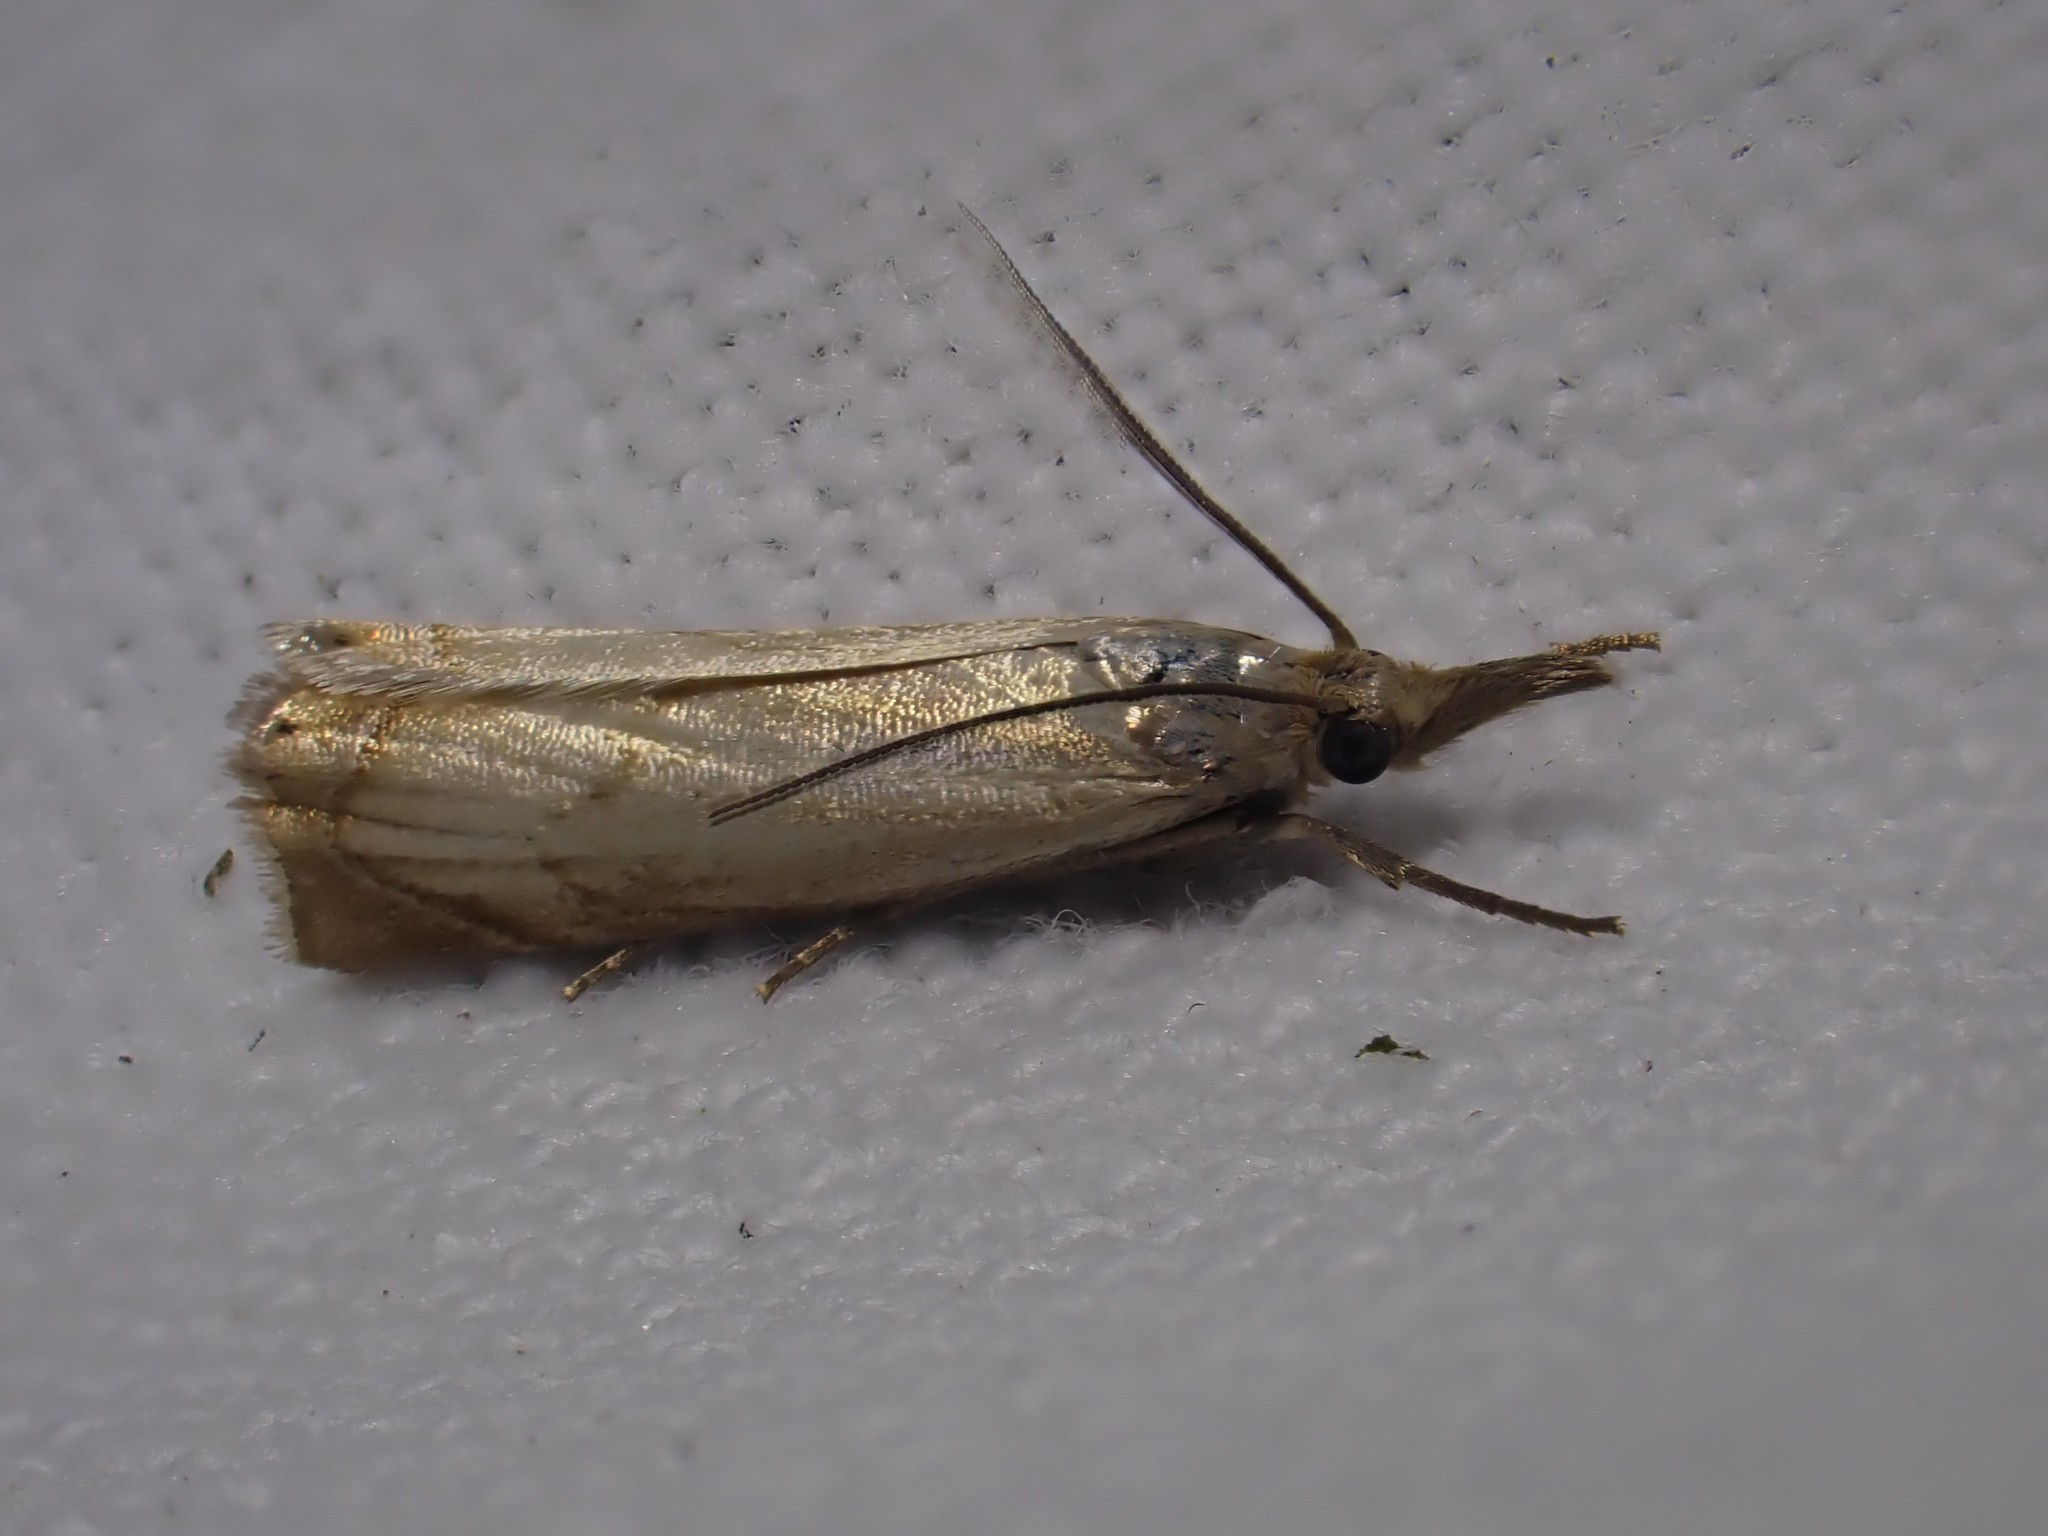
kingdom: Animalia
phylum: Arthropoda
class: Insecta
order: Lepidoptera
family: Crambidae
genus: Chrysoteuchia
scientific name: Chrysoteuchia culmella
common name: Garden grass-veneer
